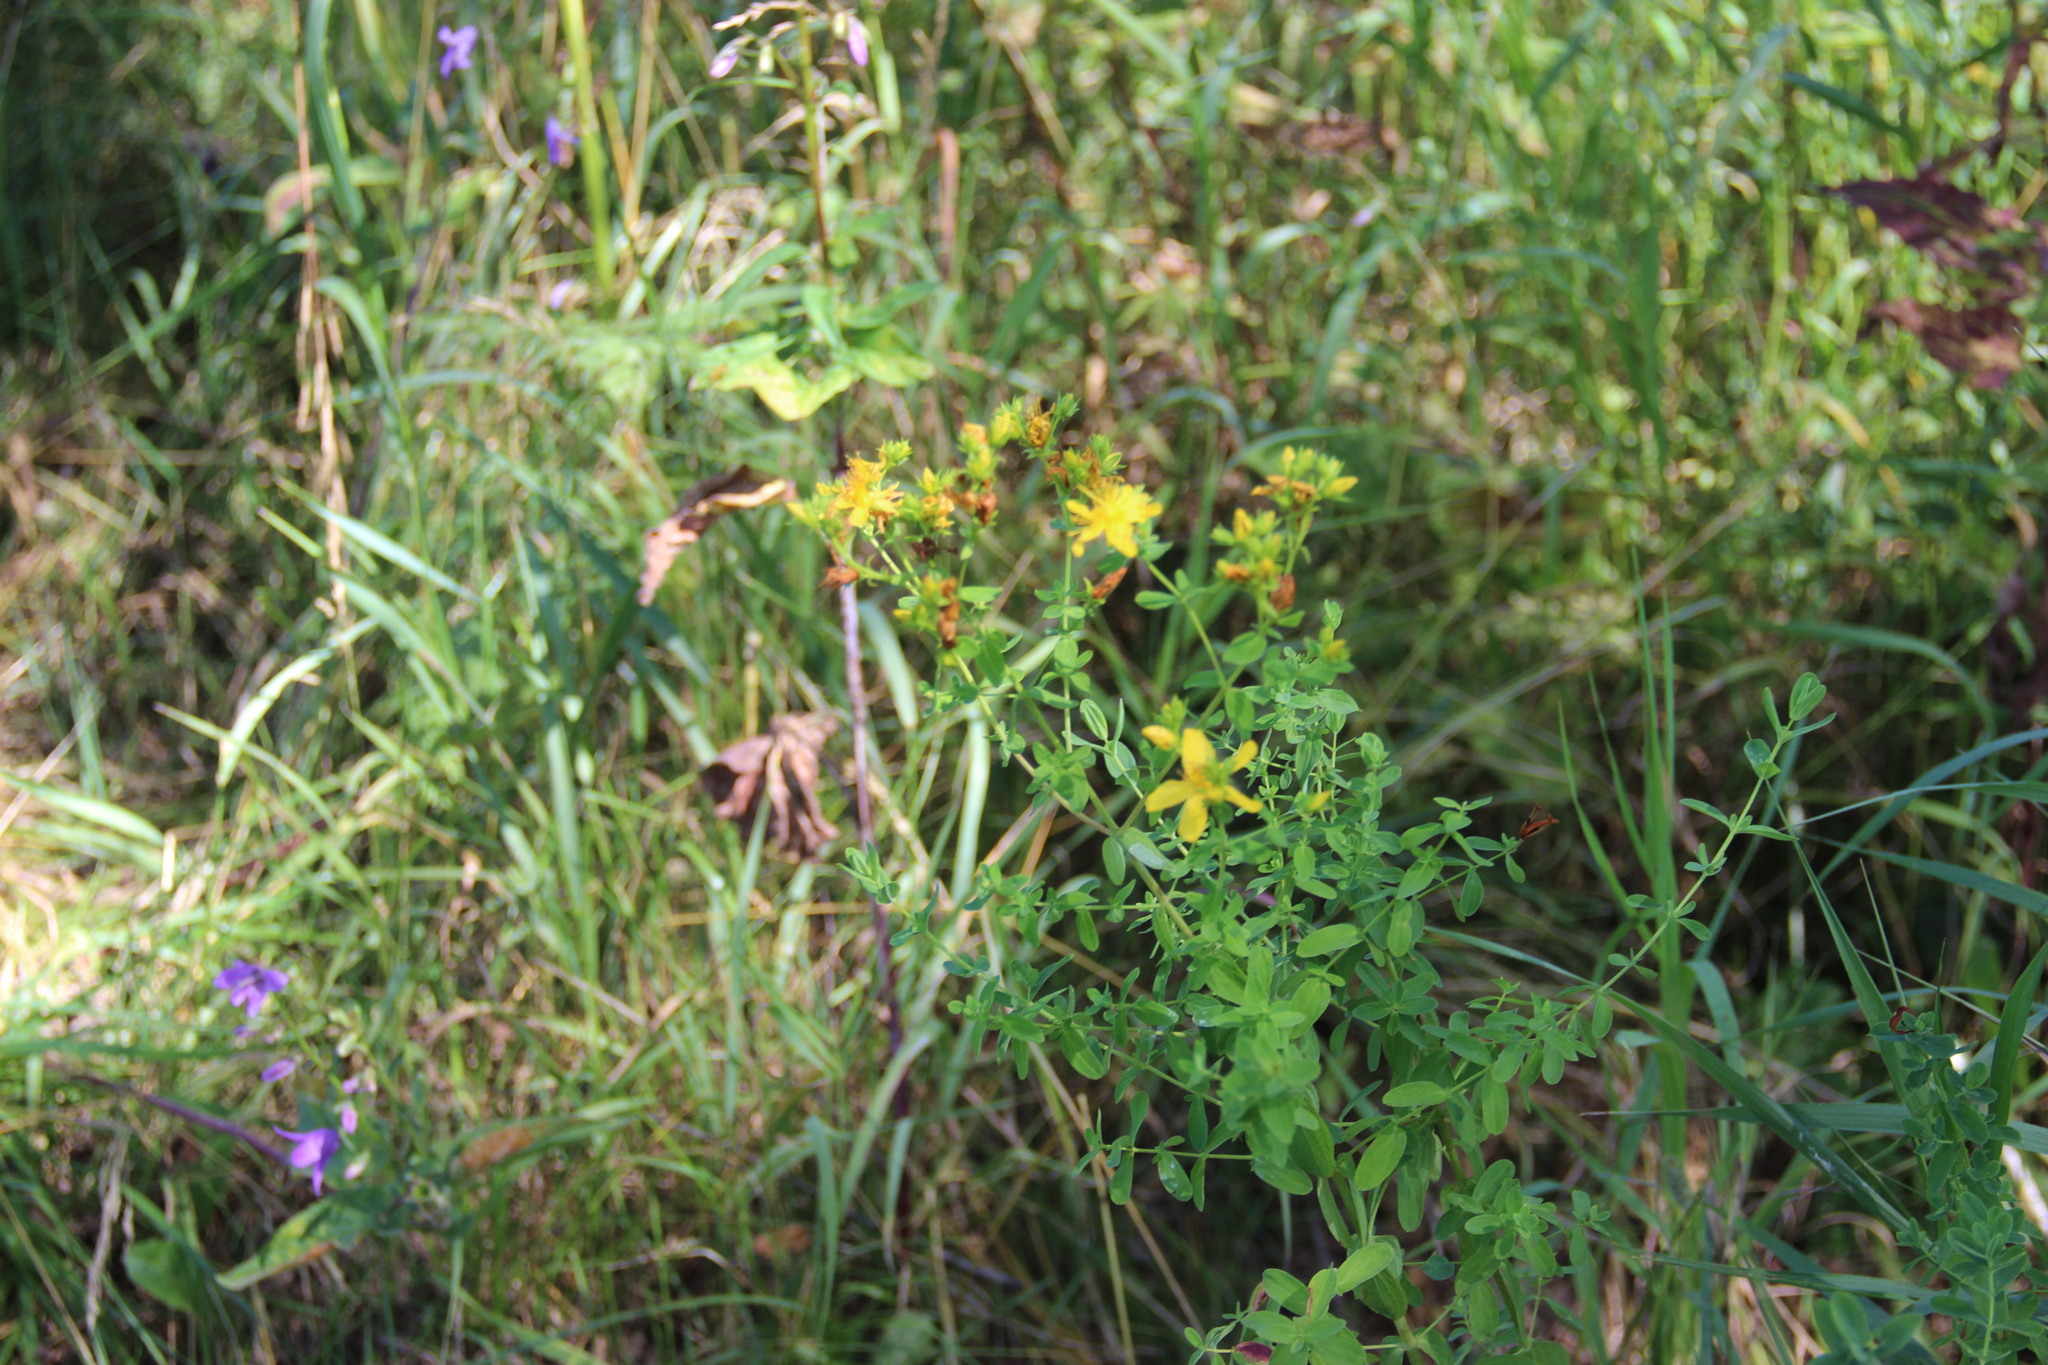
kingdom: Plantae
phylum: Tracheophyta
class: Magnoliopsida
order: Malpighiales
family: Hypericaceae
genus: Hypericum
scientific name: Hypericum perforatum
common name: Common st. johnswort
